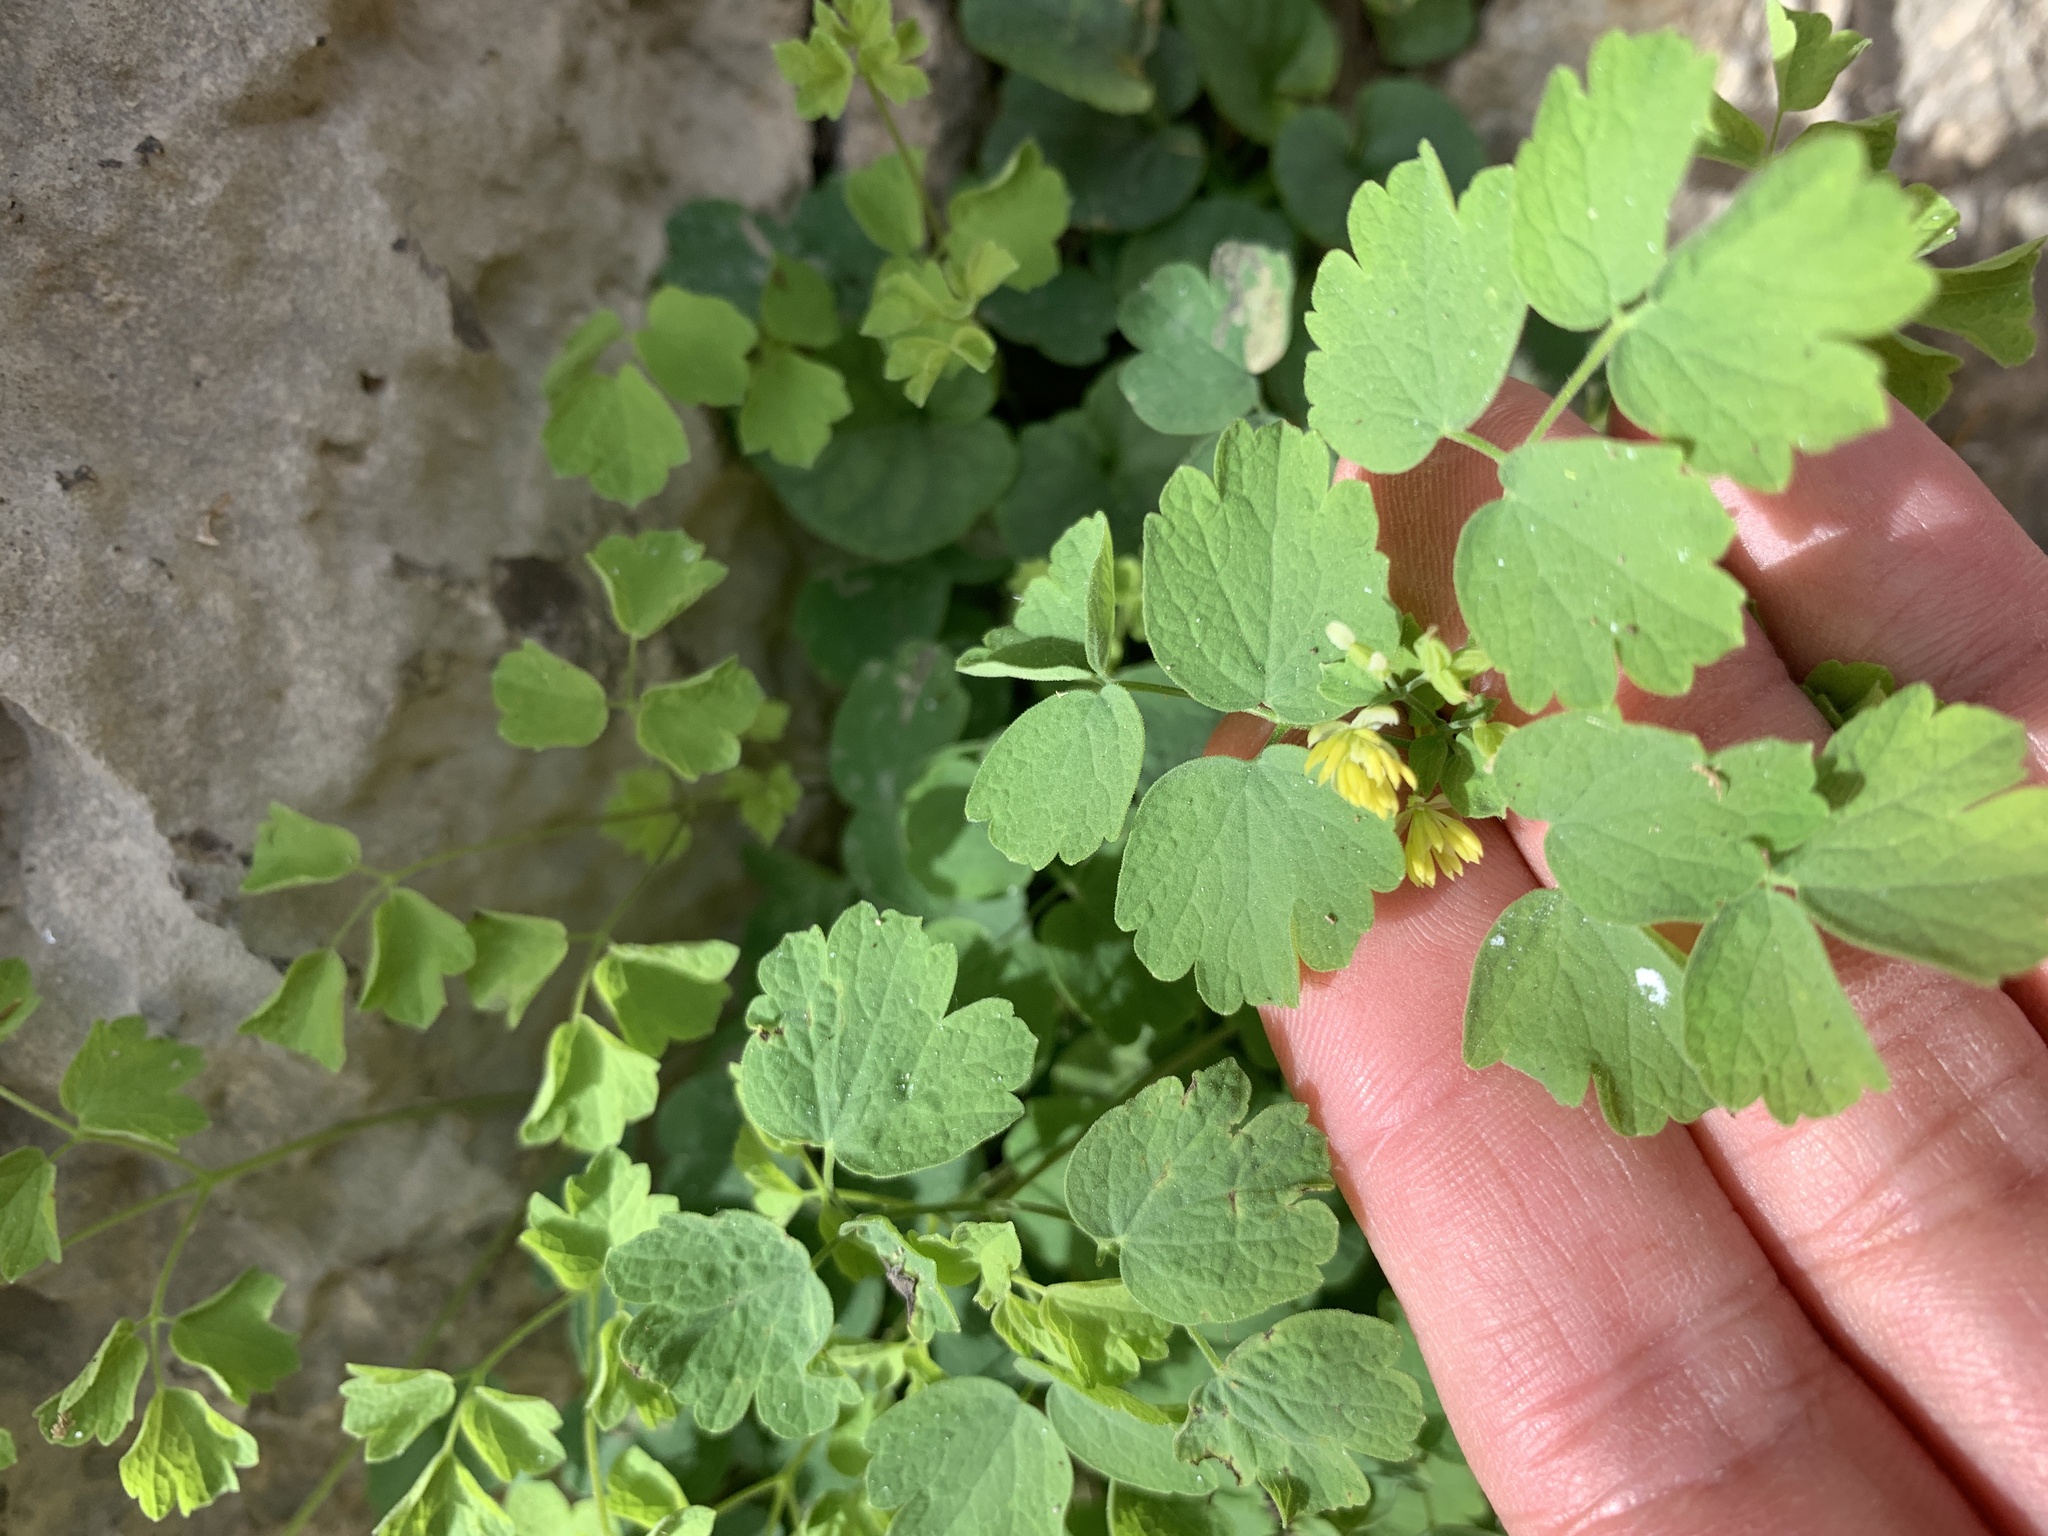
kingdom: Plantae
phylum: Tracheophyta
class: Magnoliopsida
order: Ranunculales
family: Ranunculaceae
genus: Thalictrum
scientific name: Thalictrum aquilegiifolium
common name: French meadow-rue
